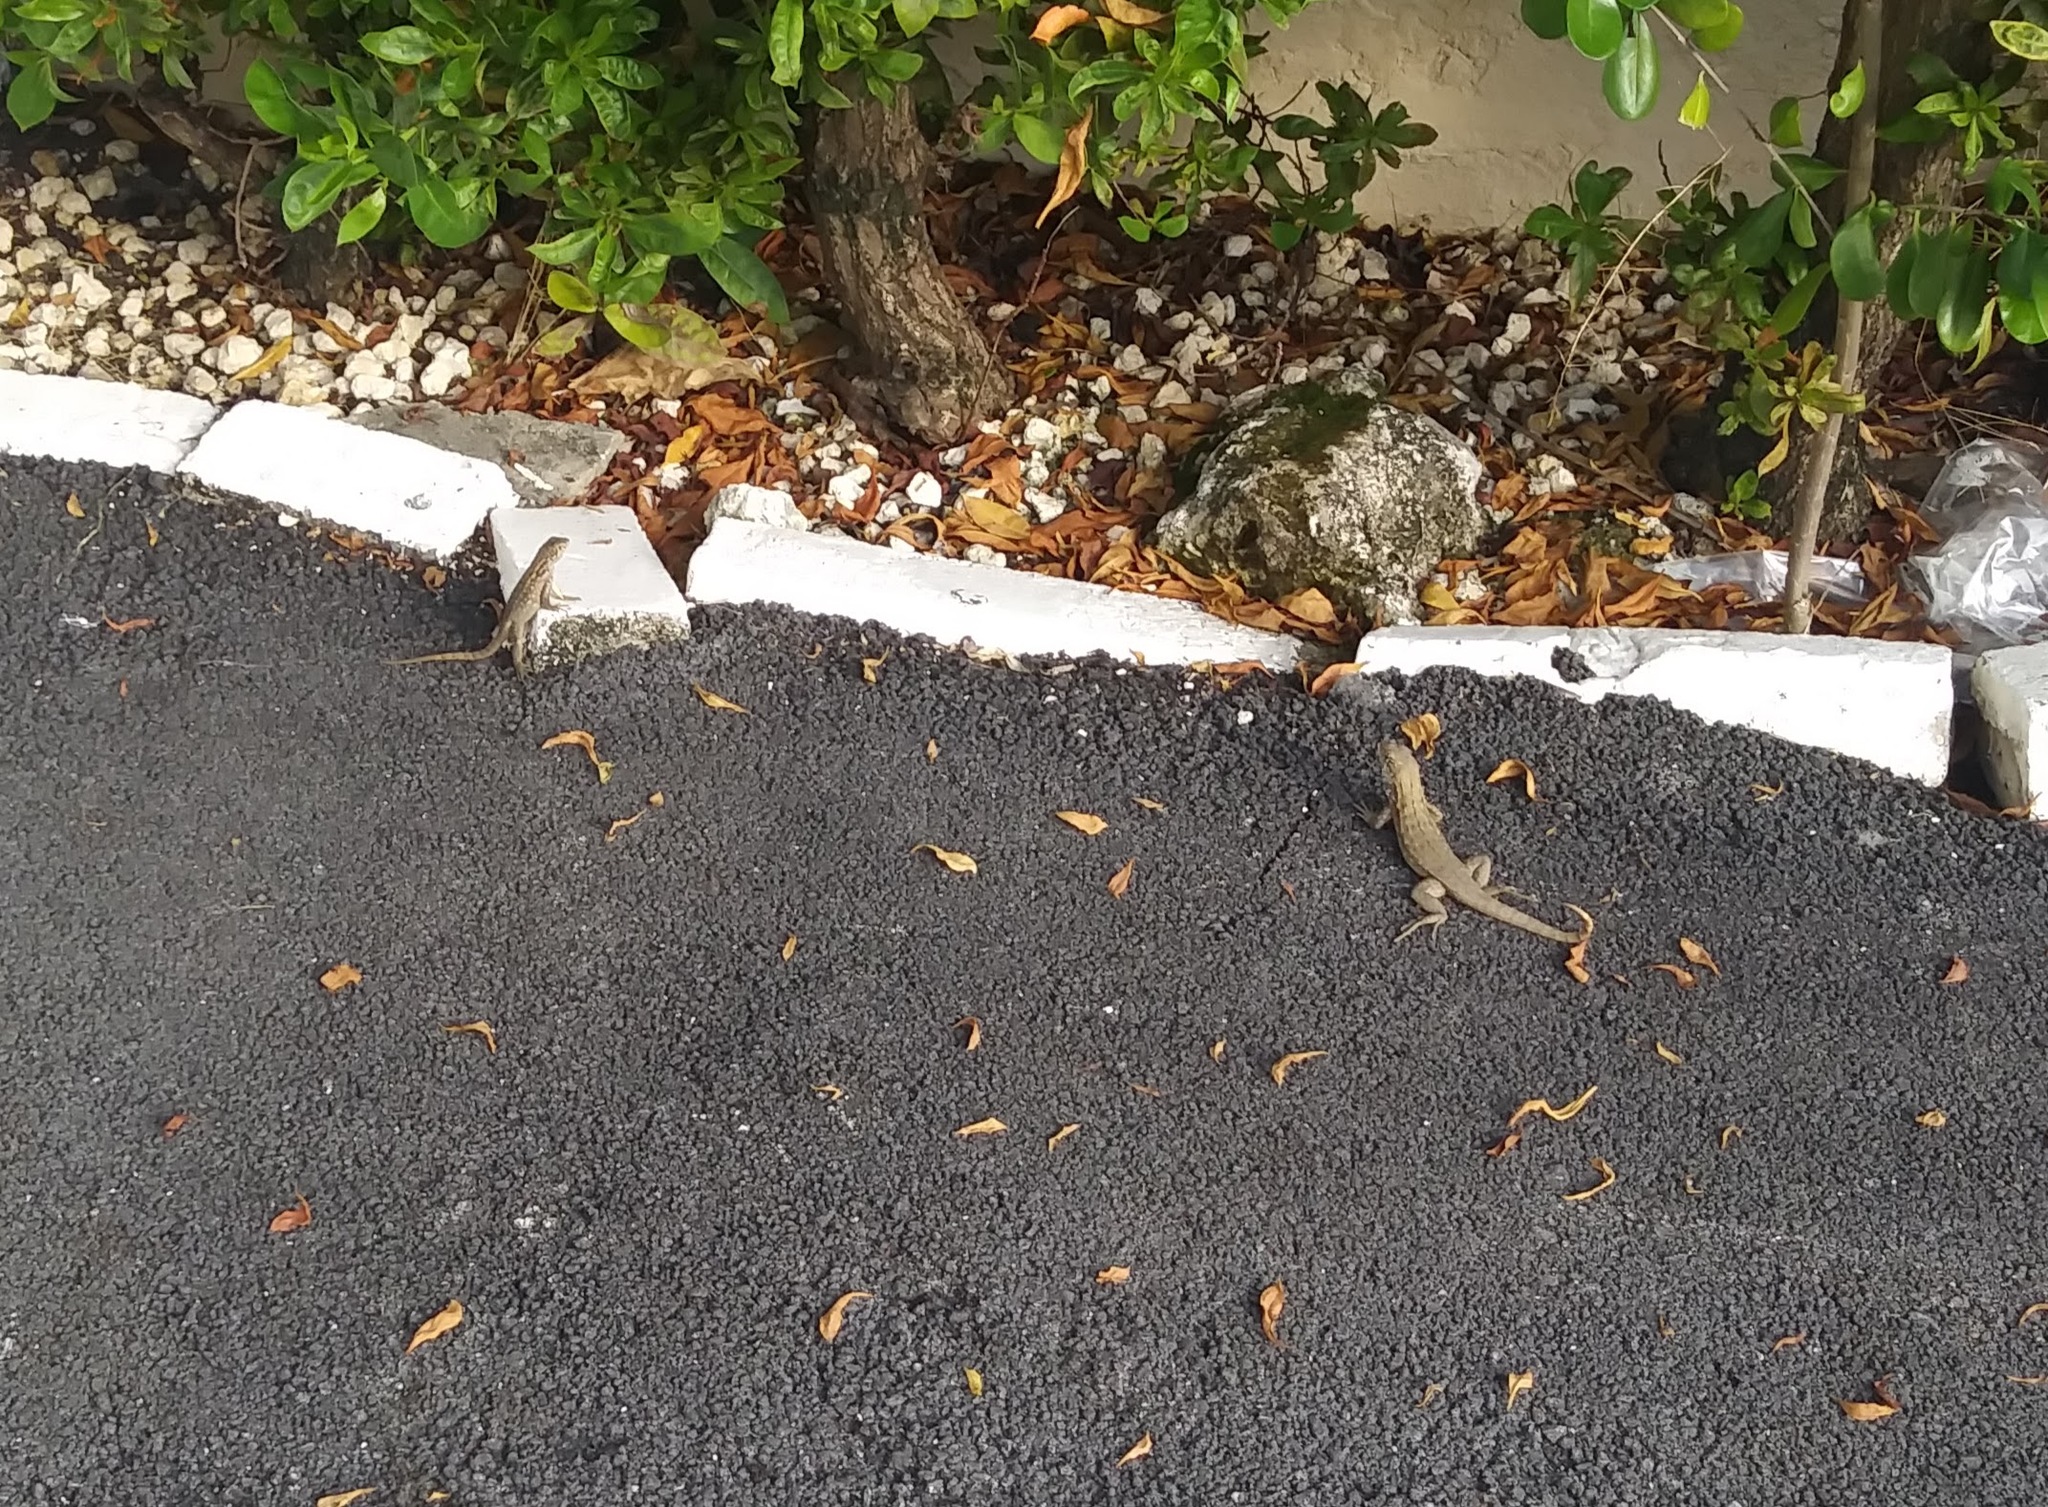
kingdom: Animalia
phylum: Chordata
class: Squamata
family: Leiocephalidae
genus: Leiocephalus
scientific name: Leiocephalus carinatus
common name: Northern curly-tailed lizard
